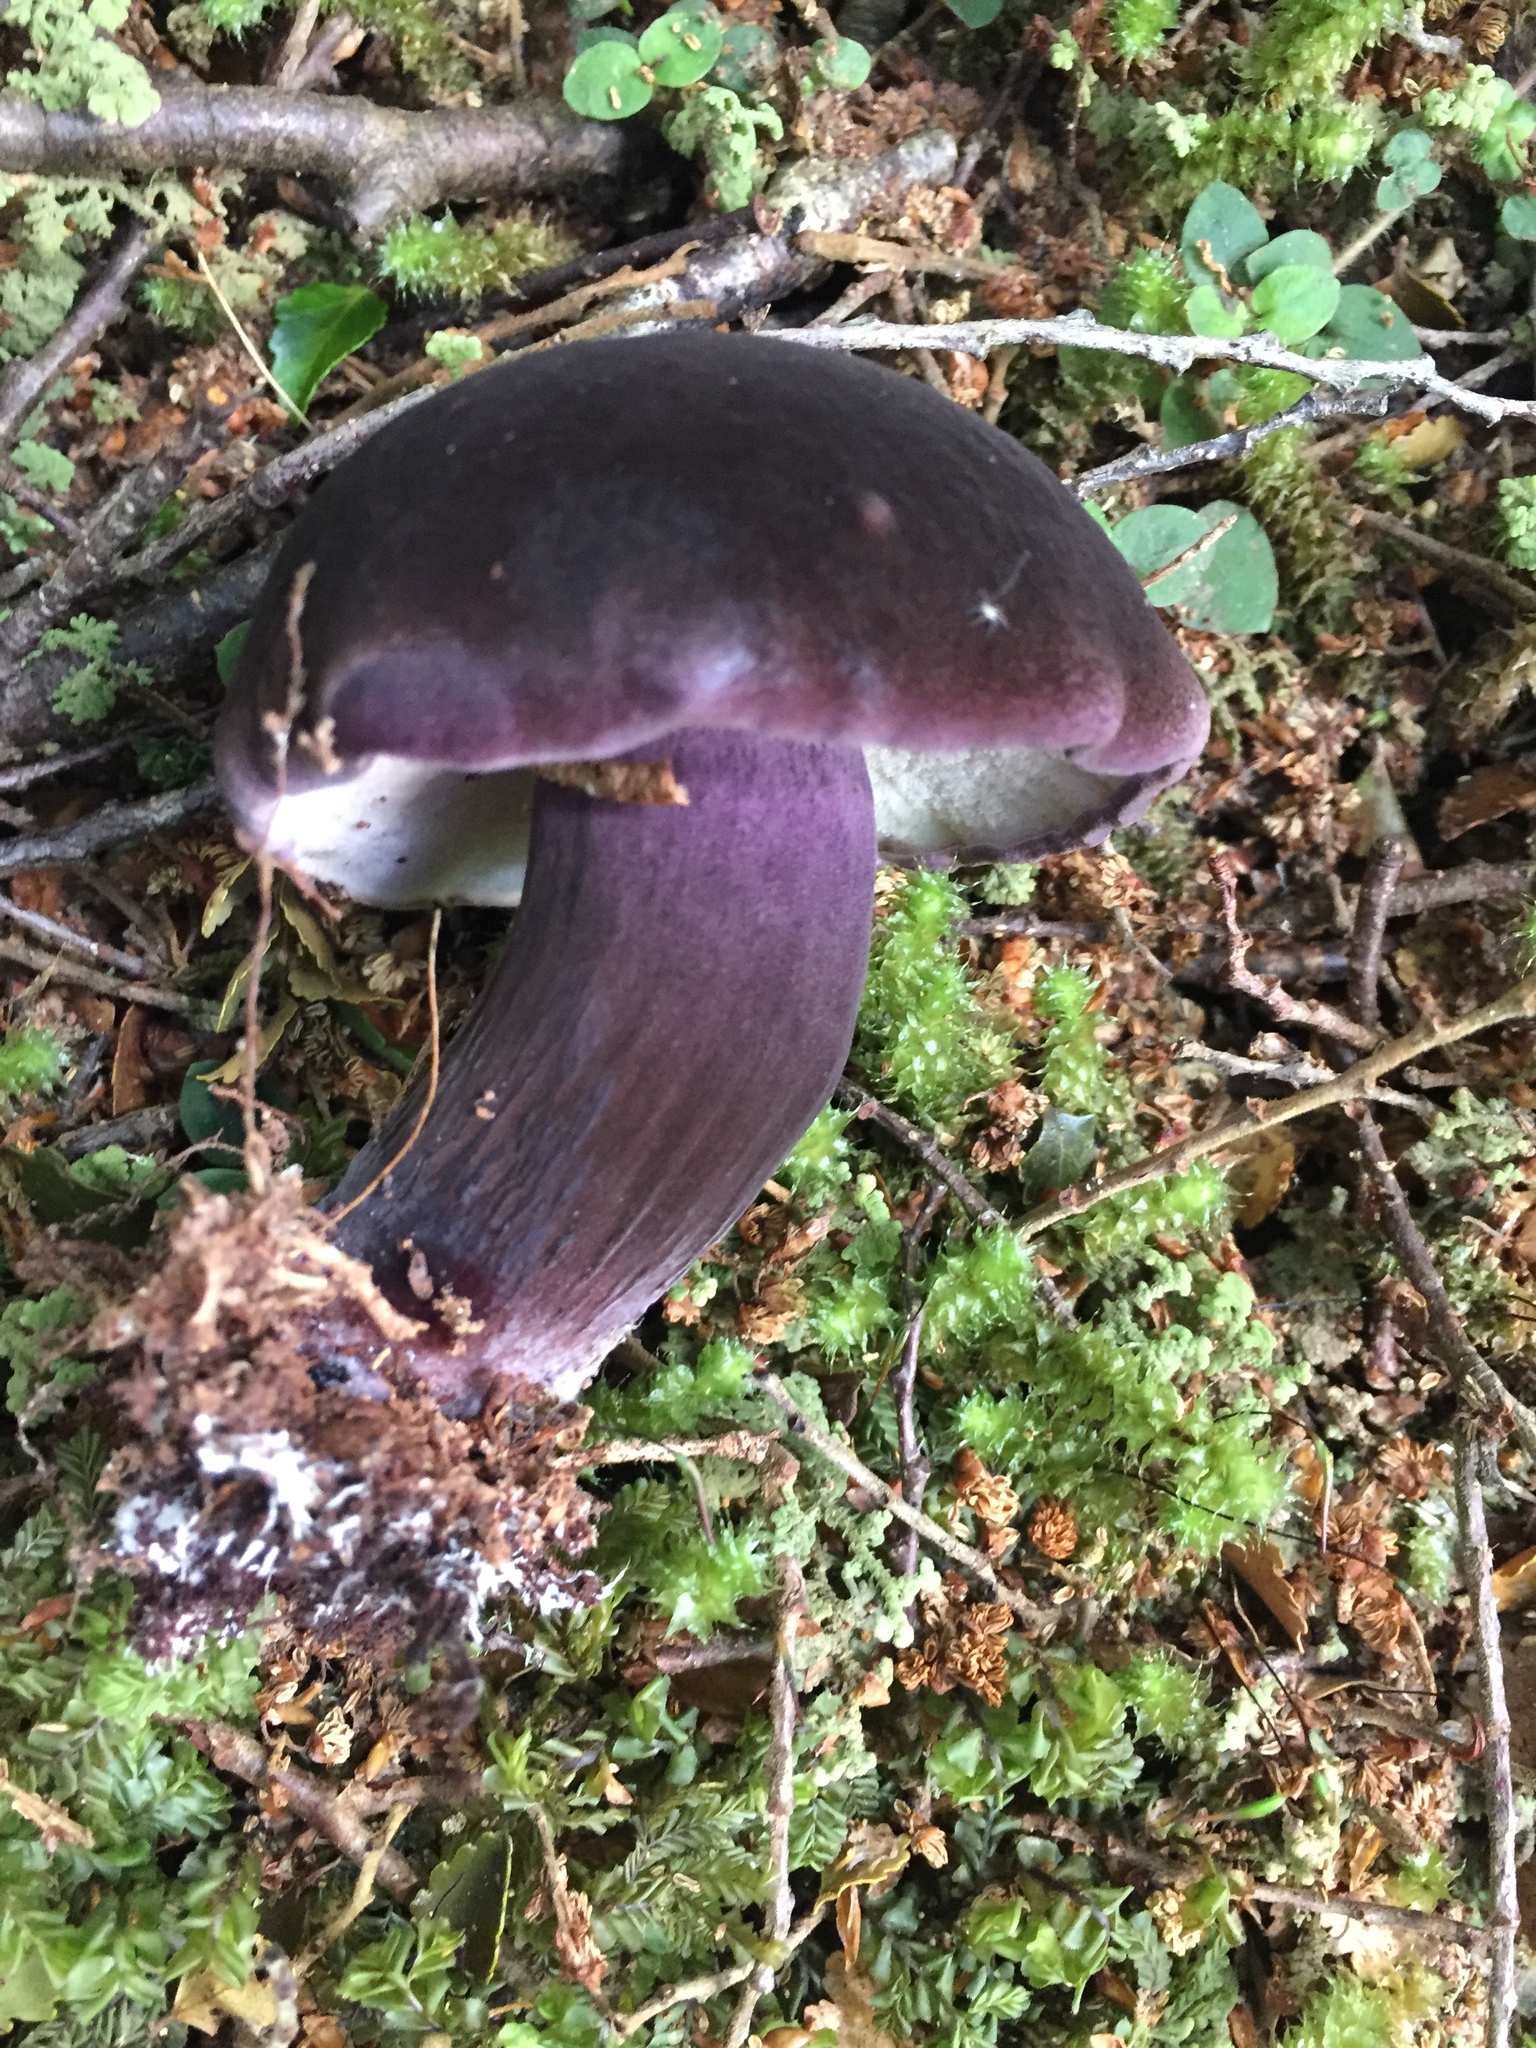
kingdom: Fungi
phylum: Basidiomycota
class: Agaricomycetes
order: Boletales
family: Boletaceae
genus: Porphyrellus
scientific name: Porphyrellus formosus
